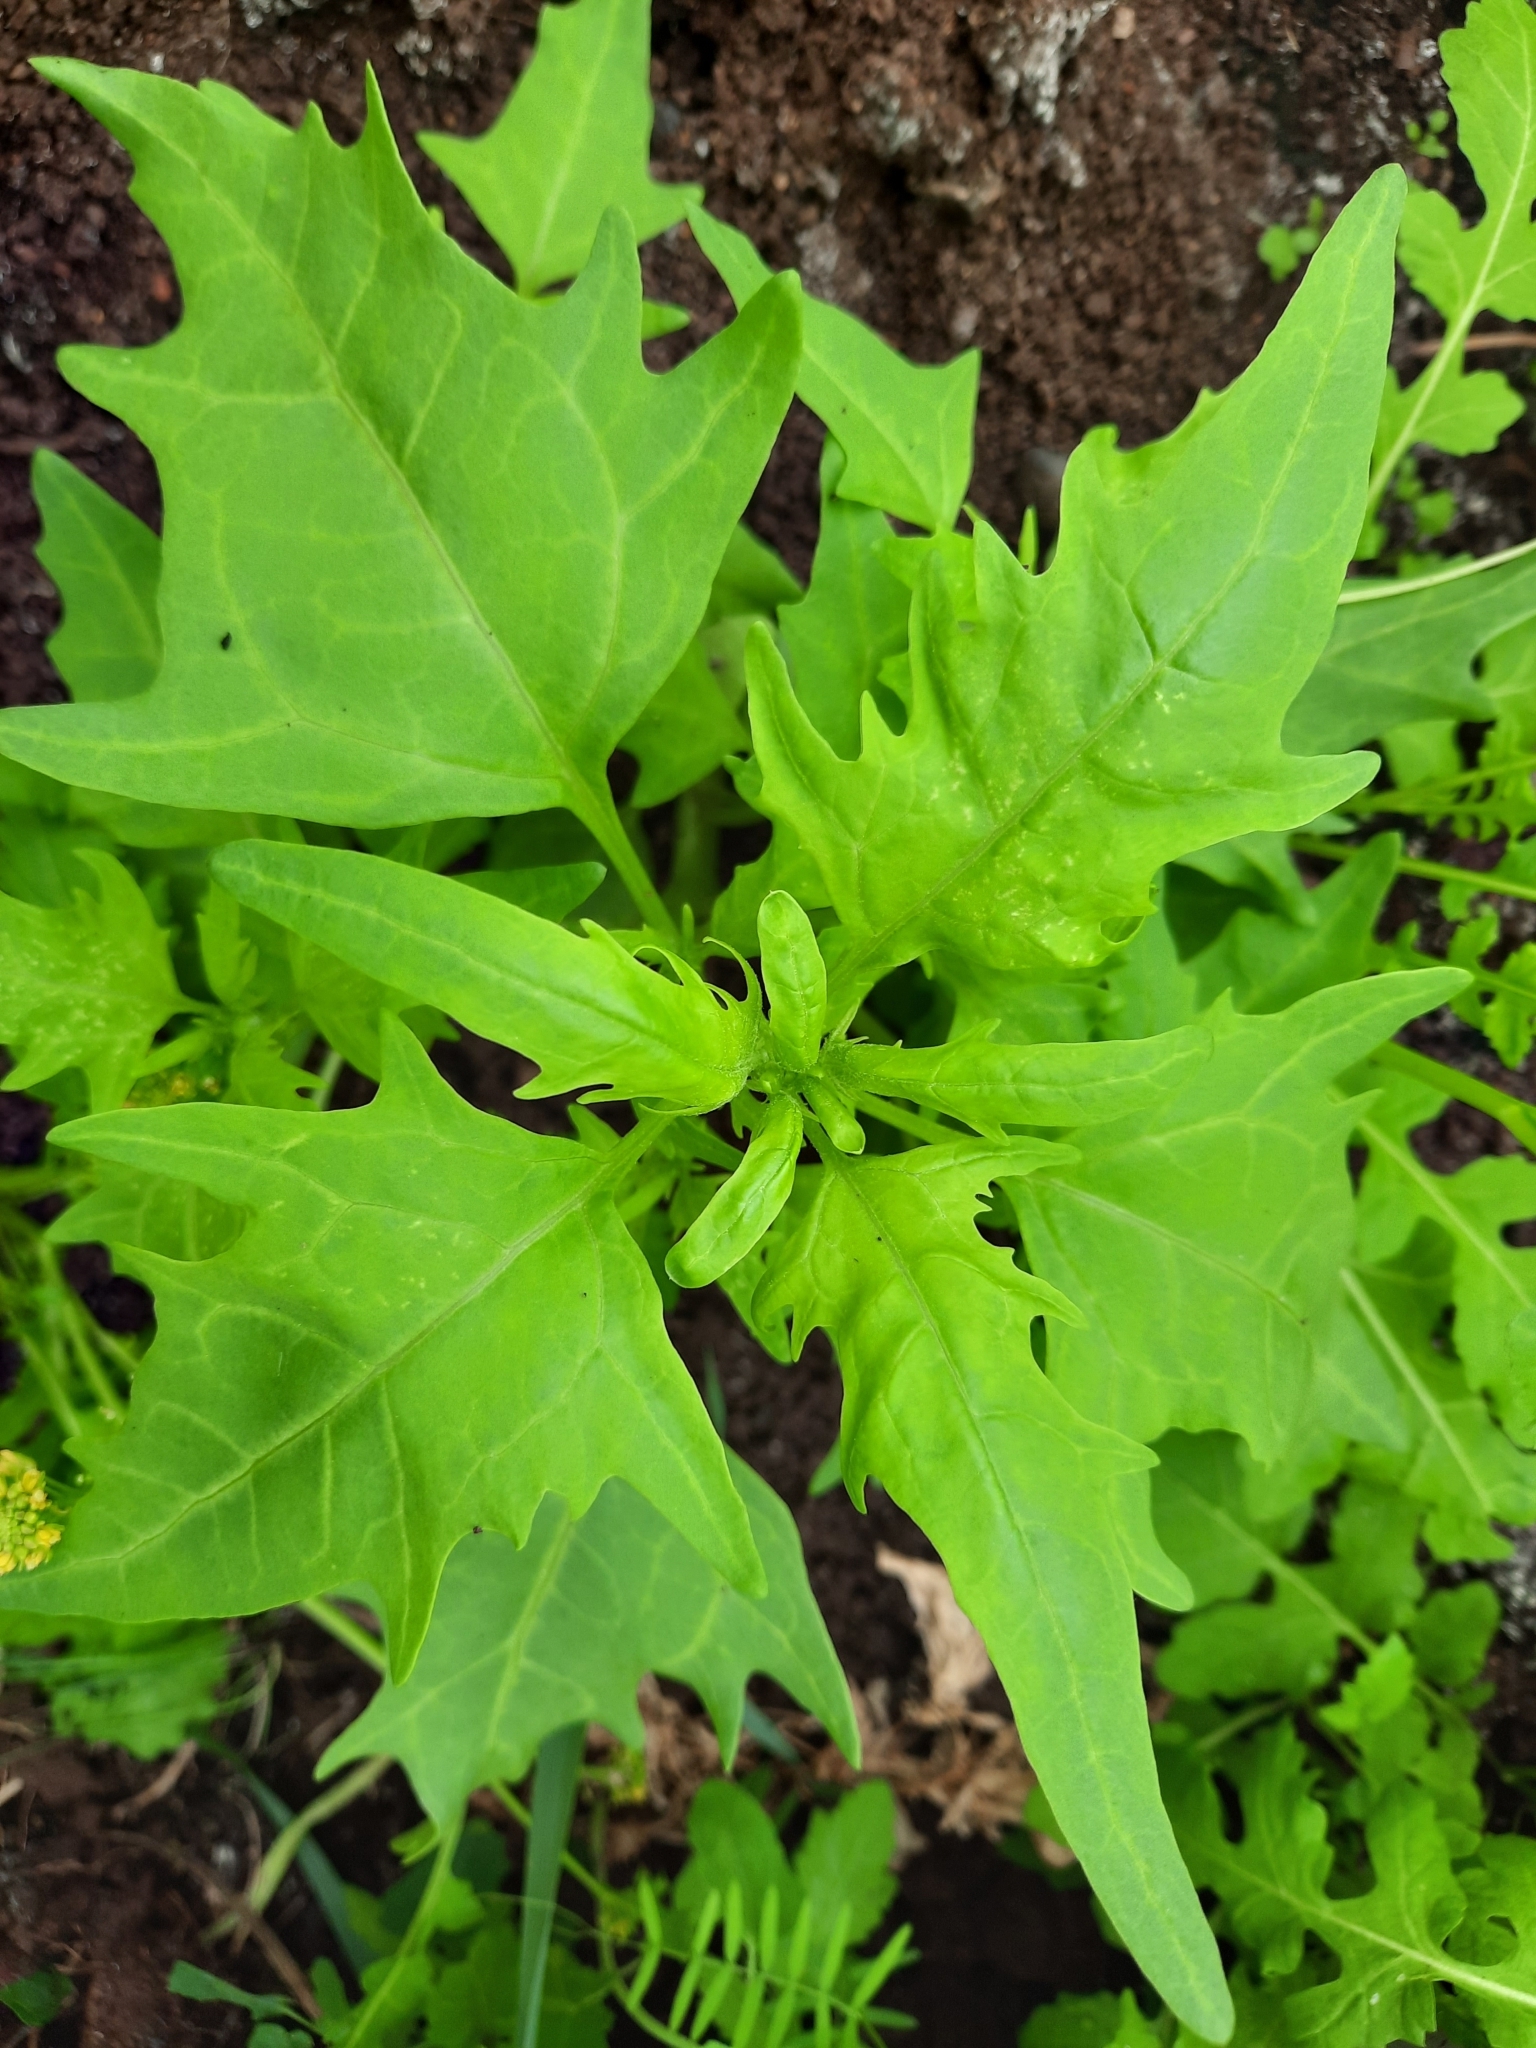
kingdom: Plantae
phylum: Tracheophyta
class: Magnoliopsida
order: Caryophyllales
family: Amaranthaceae
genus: Oxybasis
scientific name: Oxybasis rubra
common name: Red goosefoot
